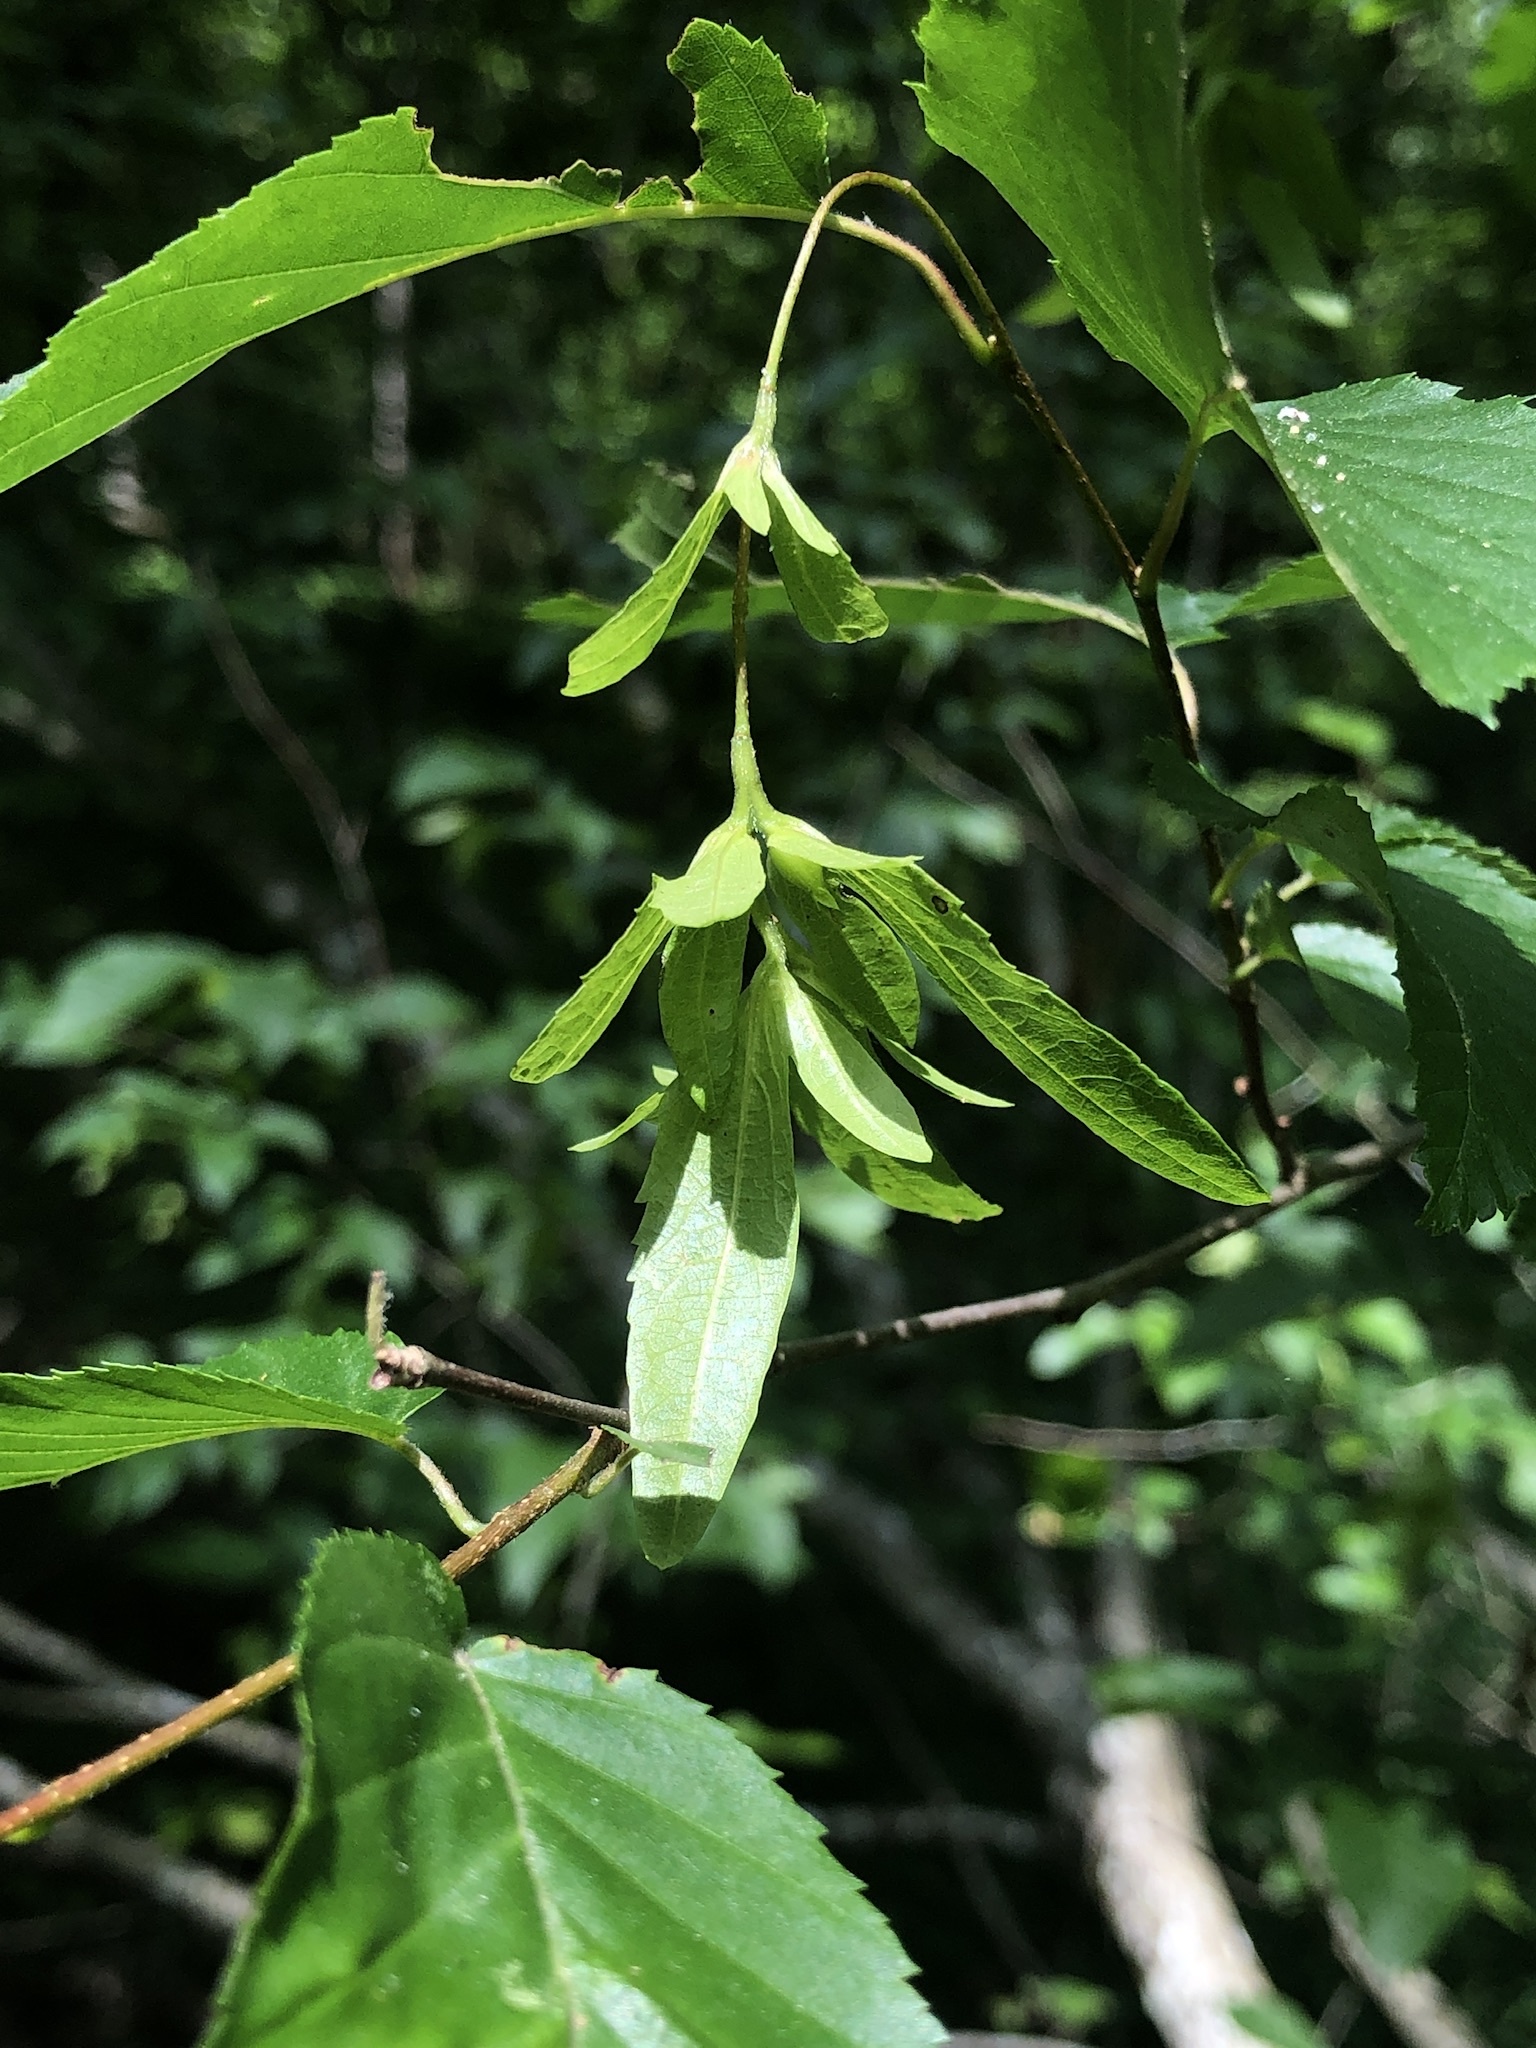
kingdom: Plantae
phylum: Tracheophyta
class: Magnoliopsida
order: Fagales
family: Betulaceae
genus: Carpinus
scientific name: Carpinus caroliniana
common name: American hornbeam
